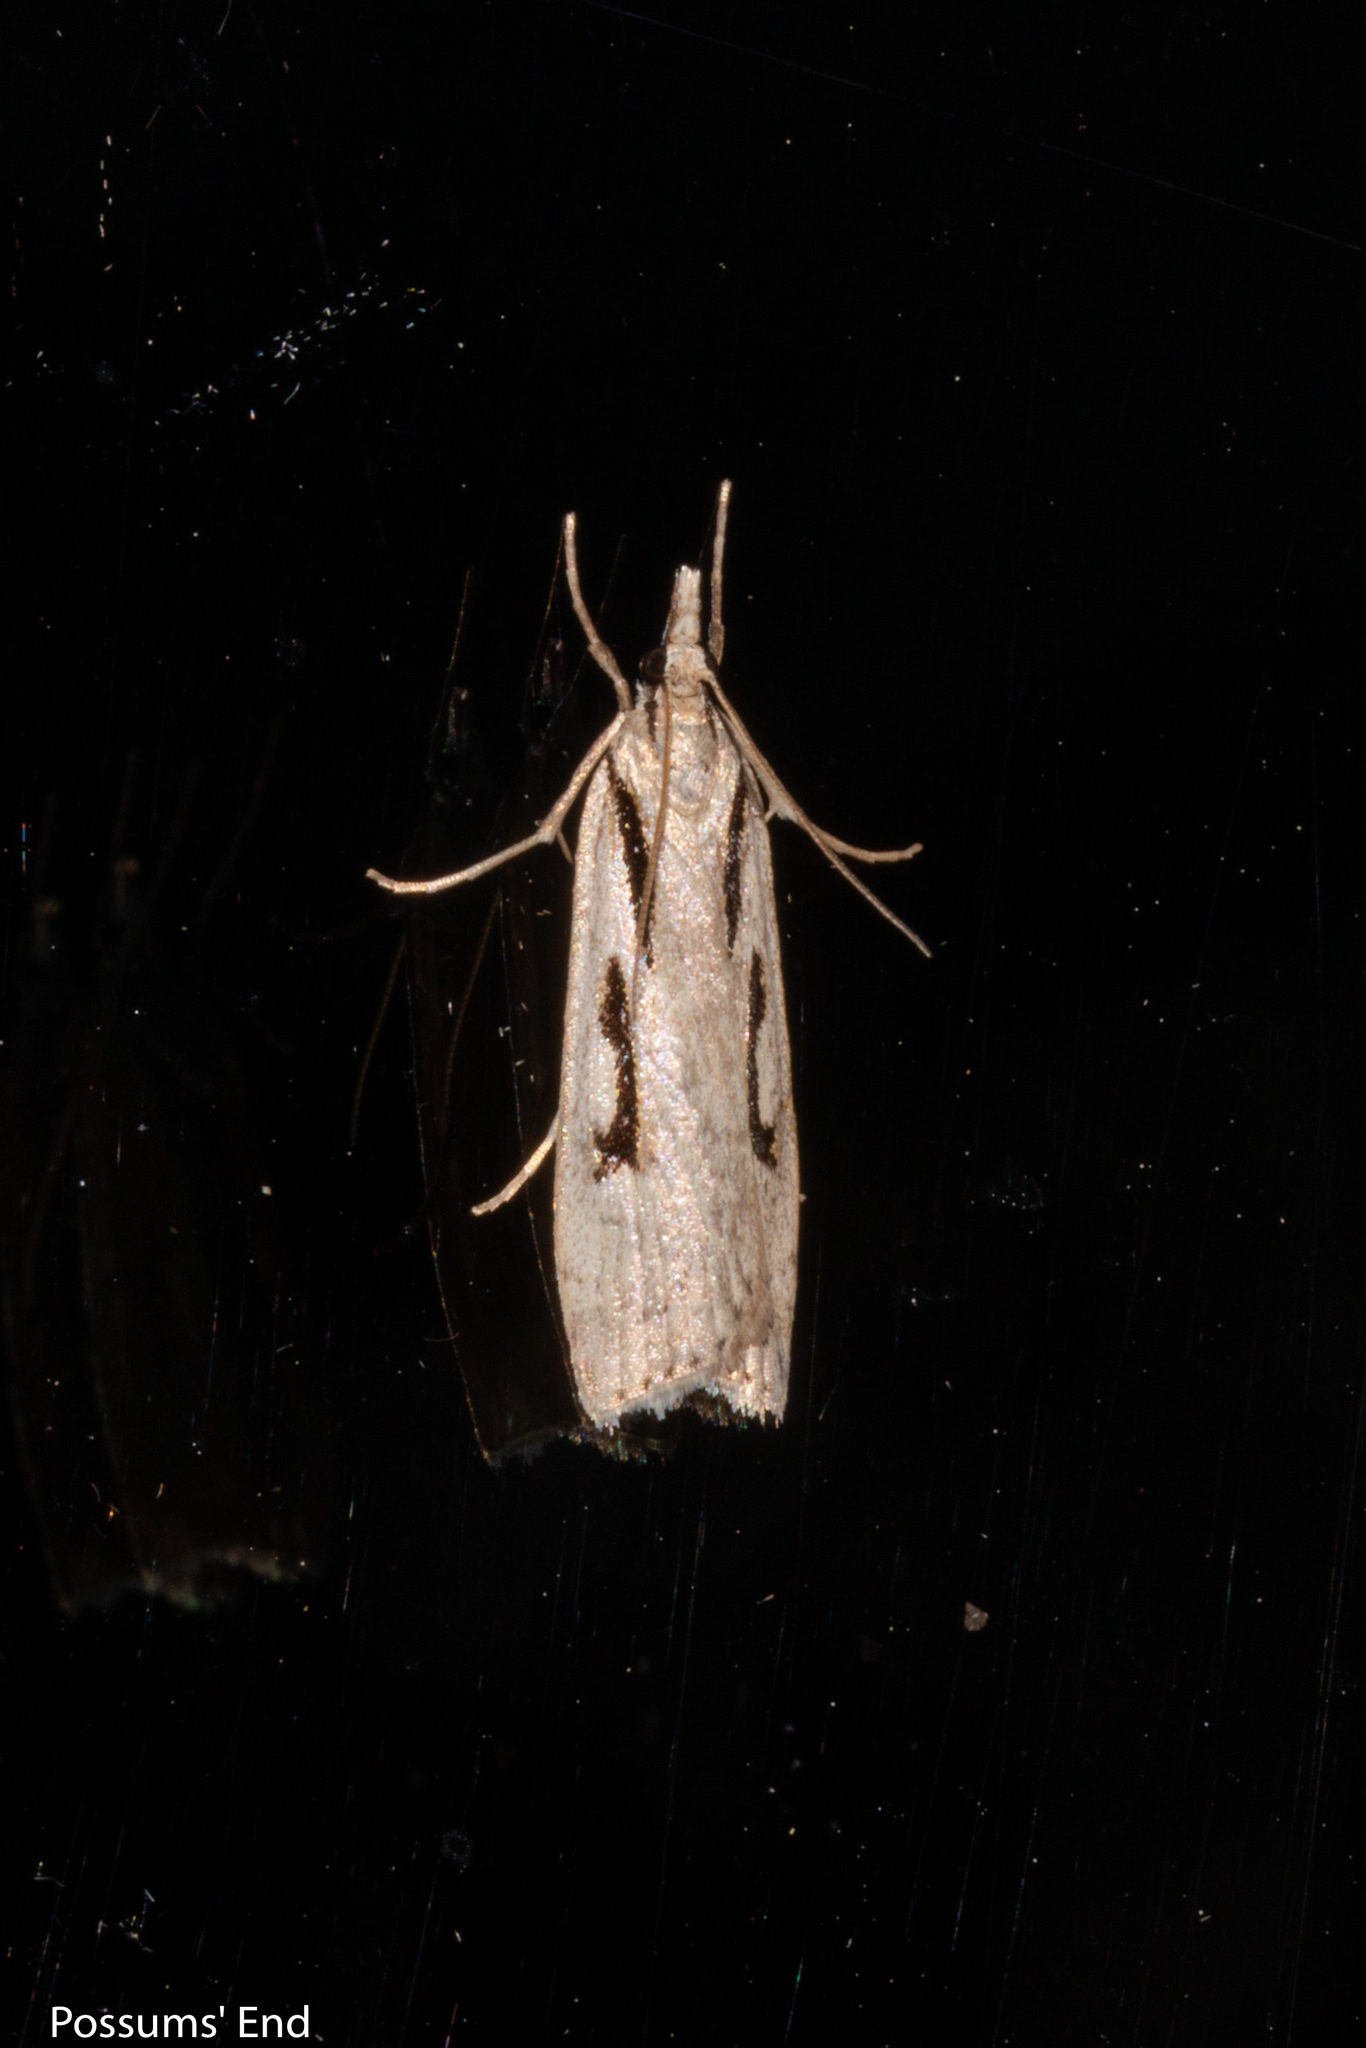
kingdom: Animalia
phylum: Arthropoda
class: Insecta
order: Lepidoptera
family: Crambidae
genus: Scoparia
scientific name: Scoparia rotuellus
